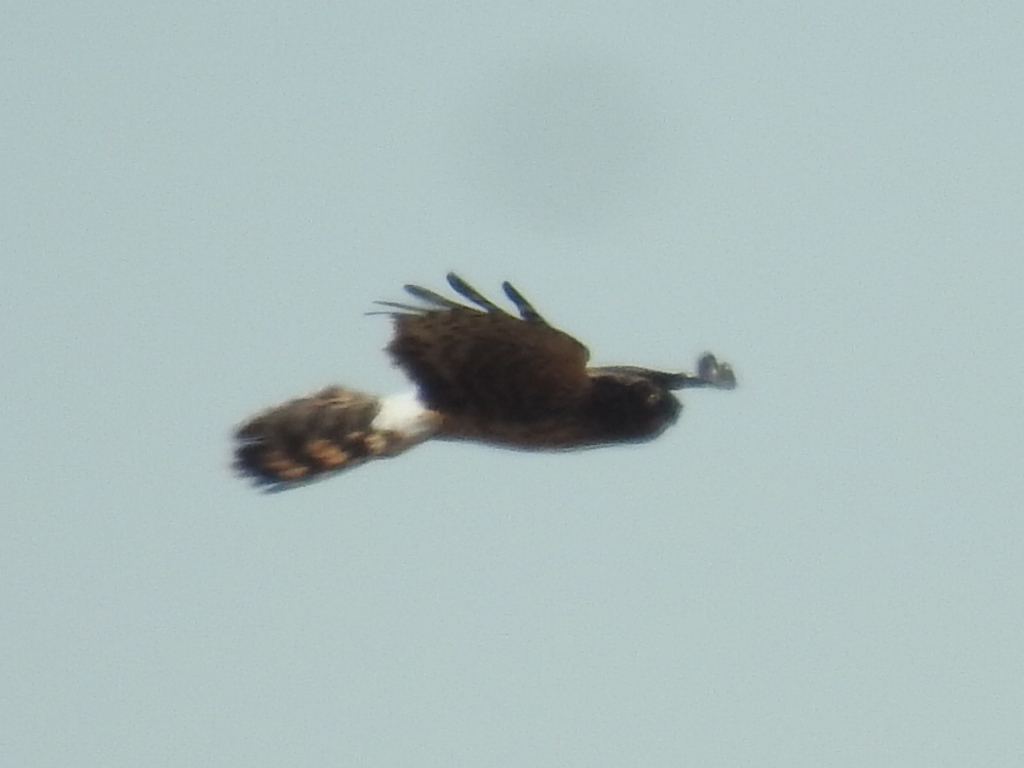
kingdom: Animalia
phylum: Chordata
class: Aves
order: Accipitriformes
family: Accipitridae
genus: Circus
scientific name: Circus cyaneus
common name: Hen harrier
